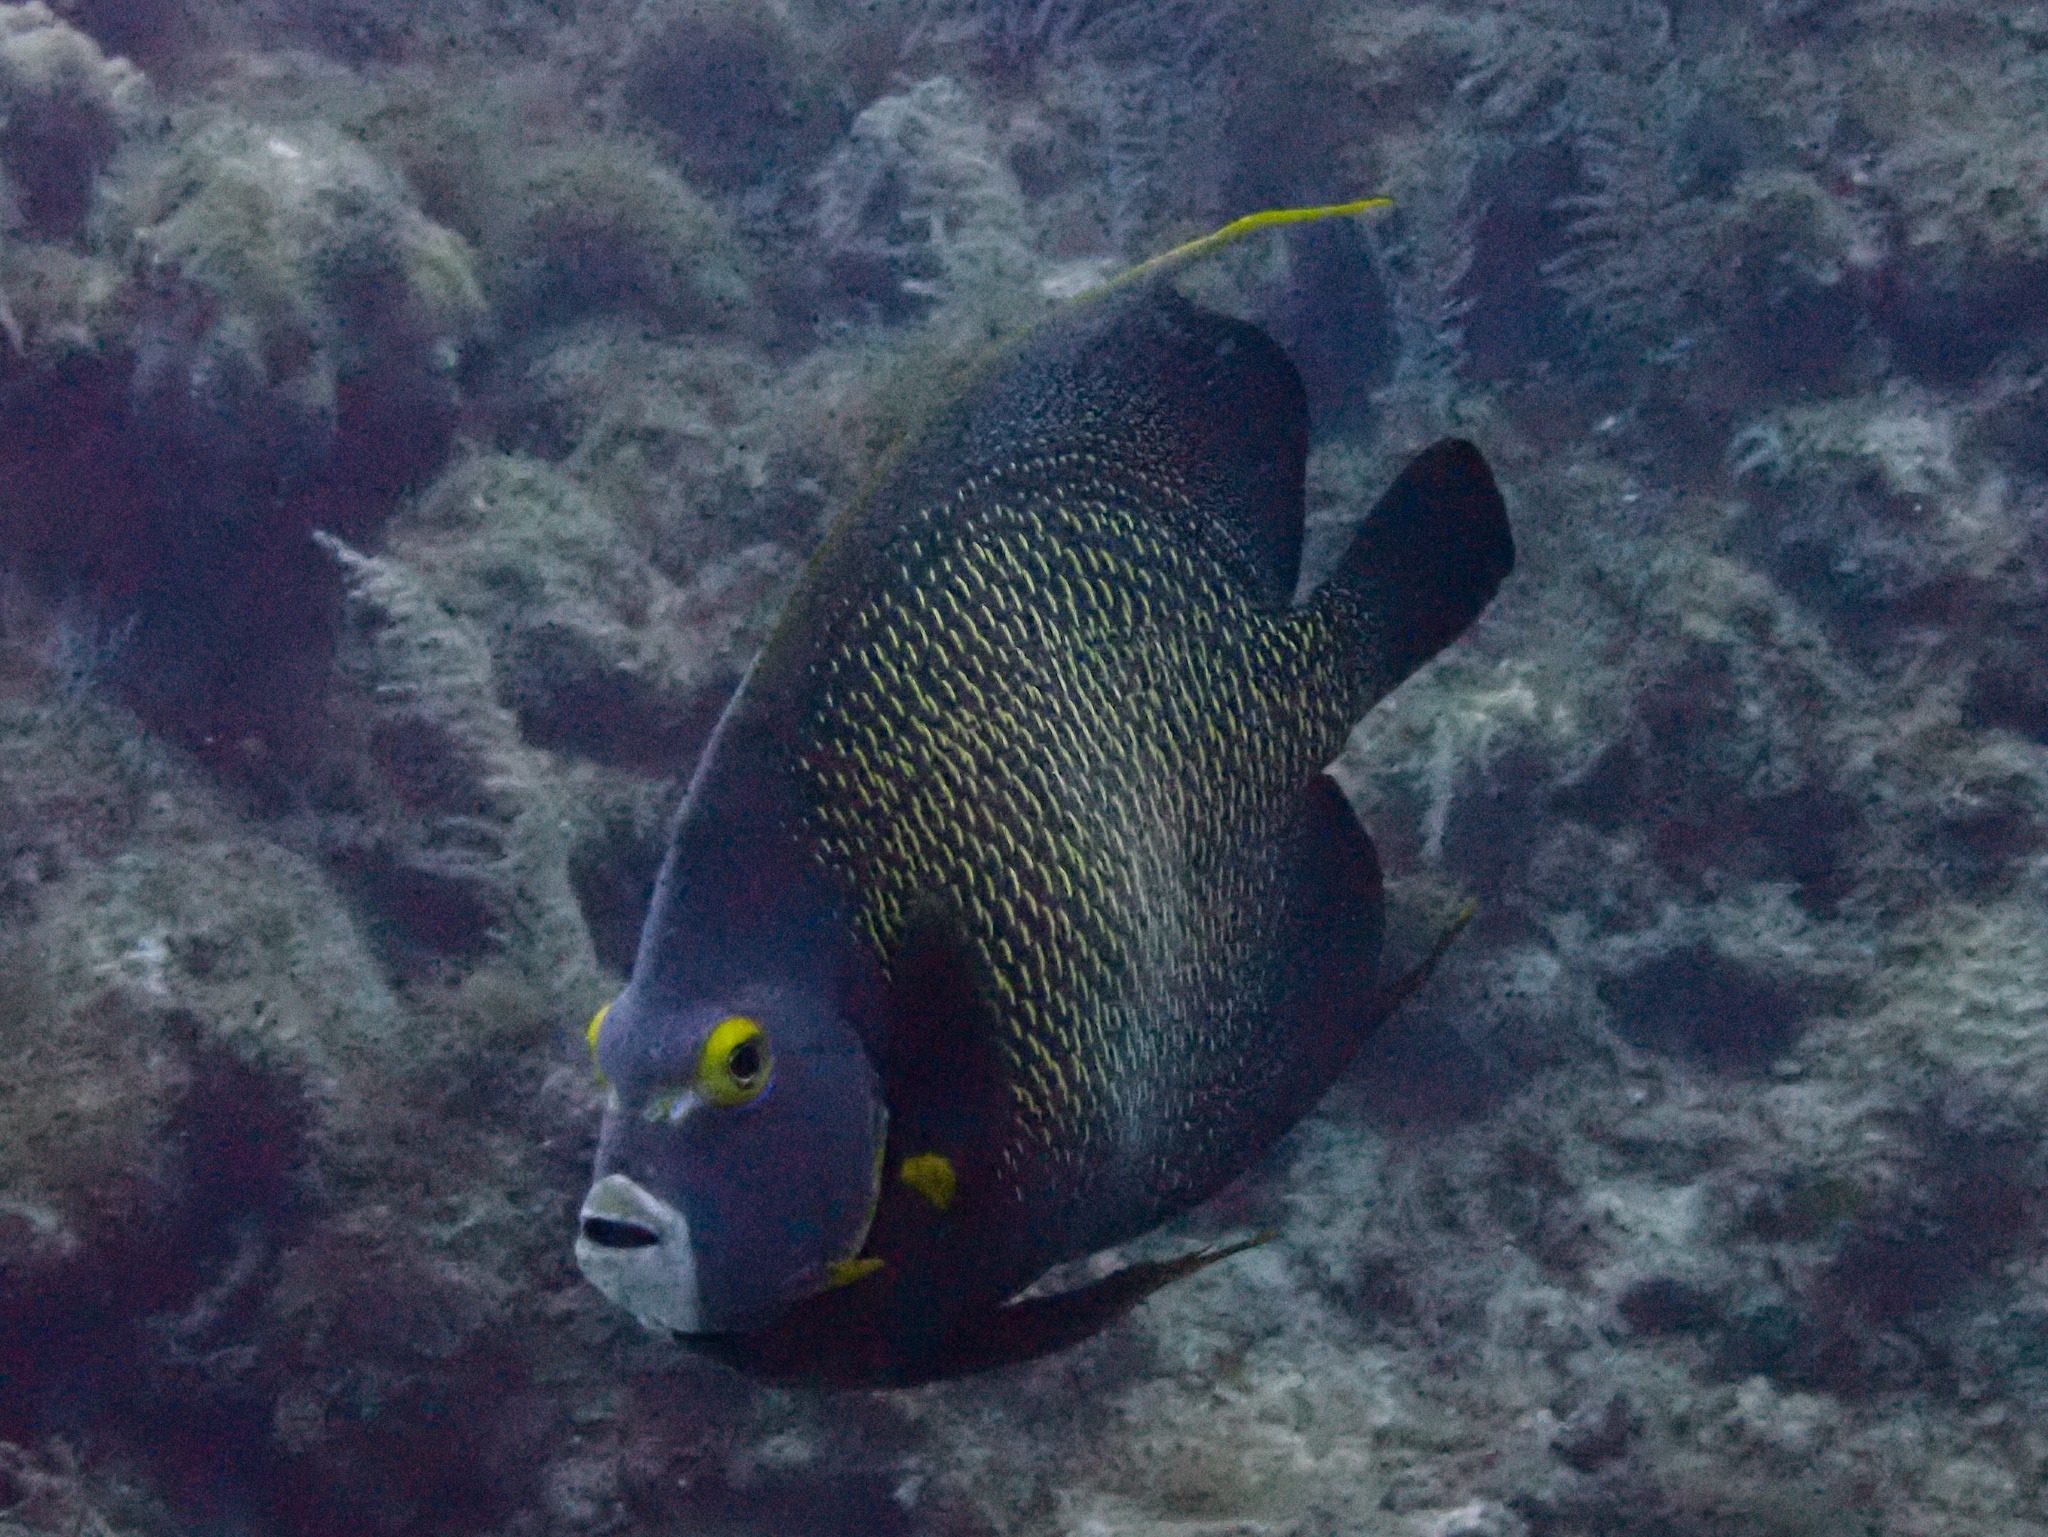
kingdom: Animalia
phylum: Chordata
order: Perciformes
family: Pomacanthidae
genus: Pomacanthus
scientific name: Pomacanthus paru
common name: French angelfish
